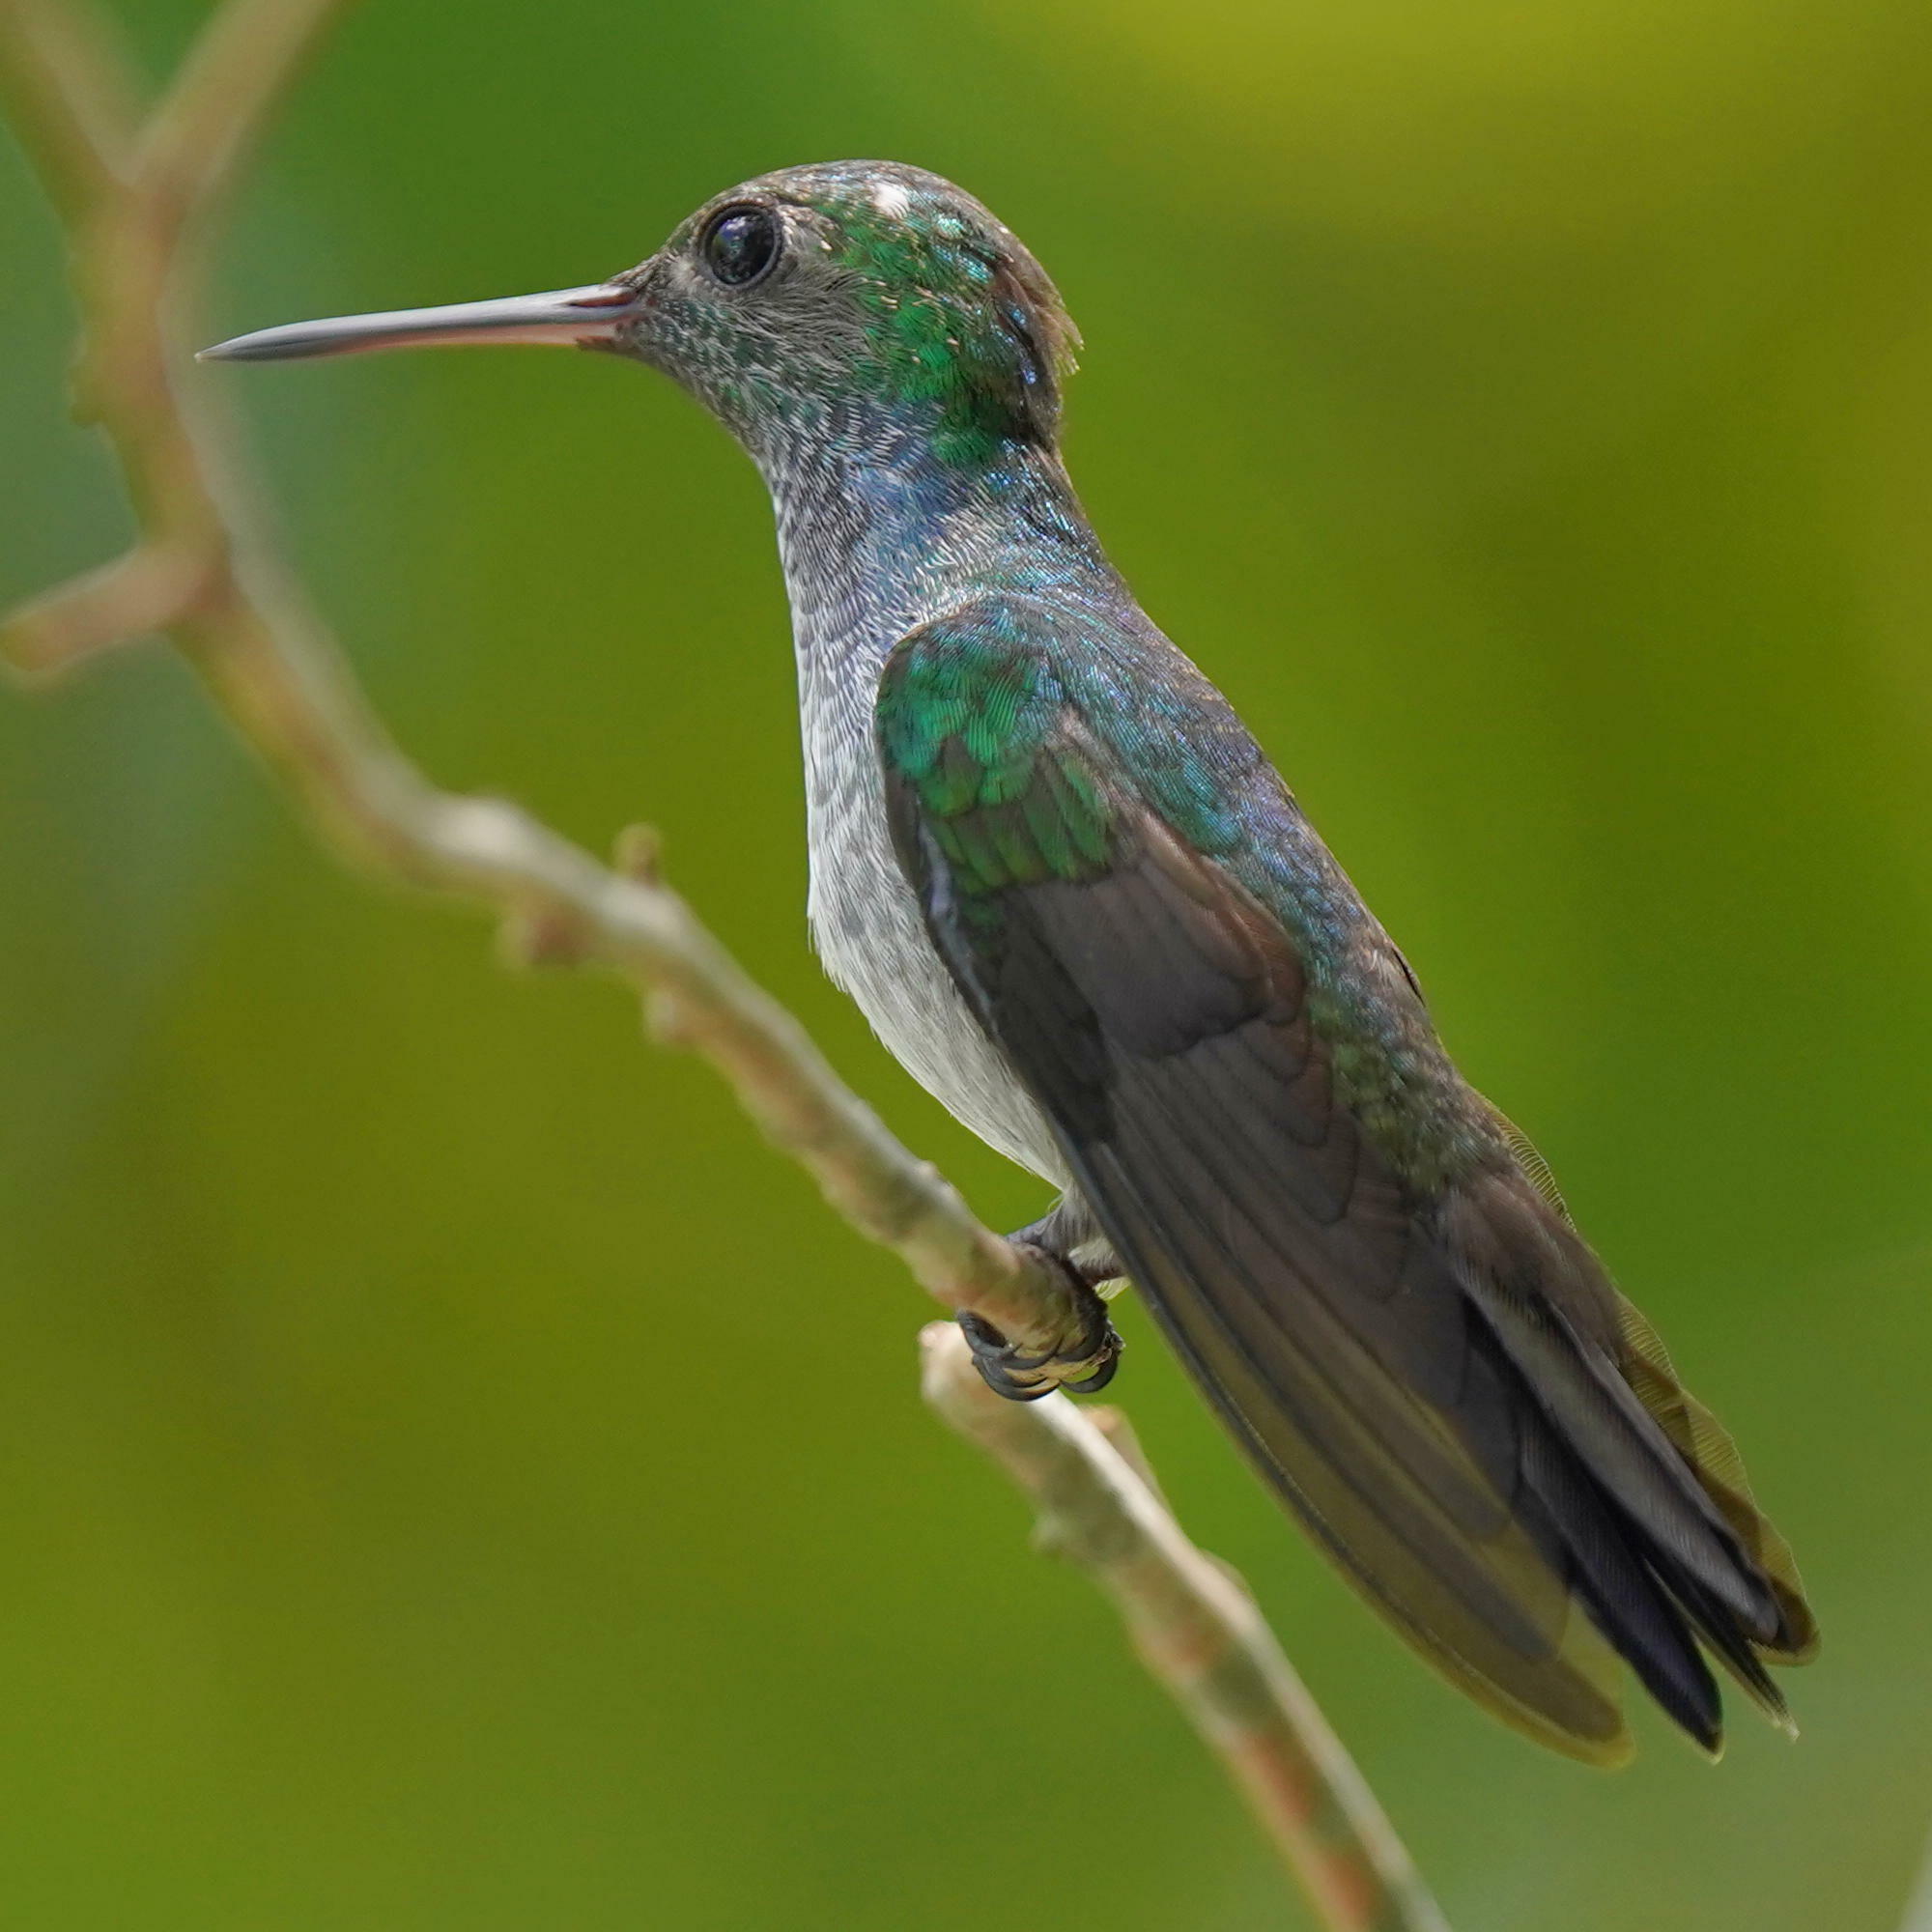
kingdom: Animalia
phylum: Chordata
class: Aves
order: Apodiformes
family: Trochilidae
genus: Polyerata
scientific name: Polyerata amabilis
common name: Blue-chested hummingbird
